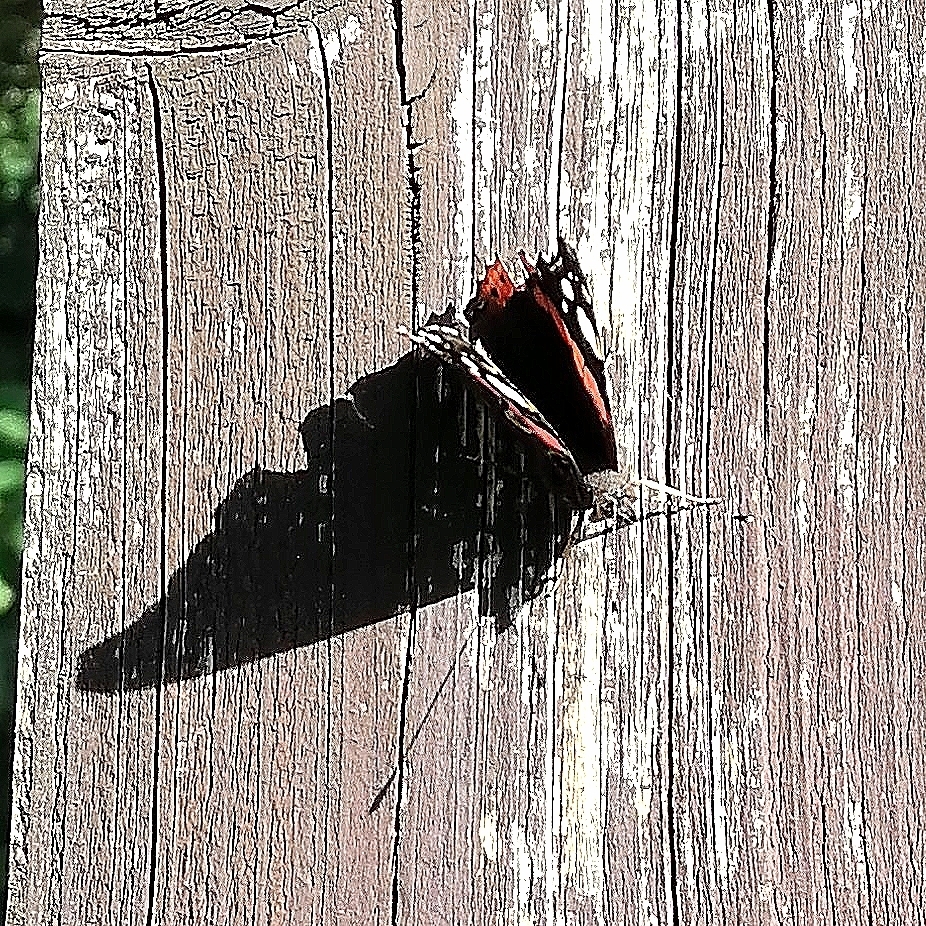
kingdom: Animalia
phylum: Arthropoda
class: Insecta
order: Lepidoptera
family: Nymphalidae
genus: Vanessa
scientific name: Vanessa atalanta
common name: Red admiral
